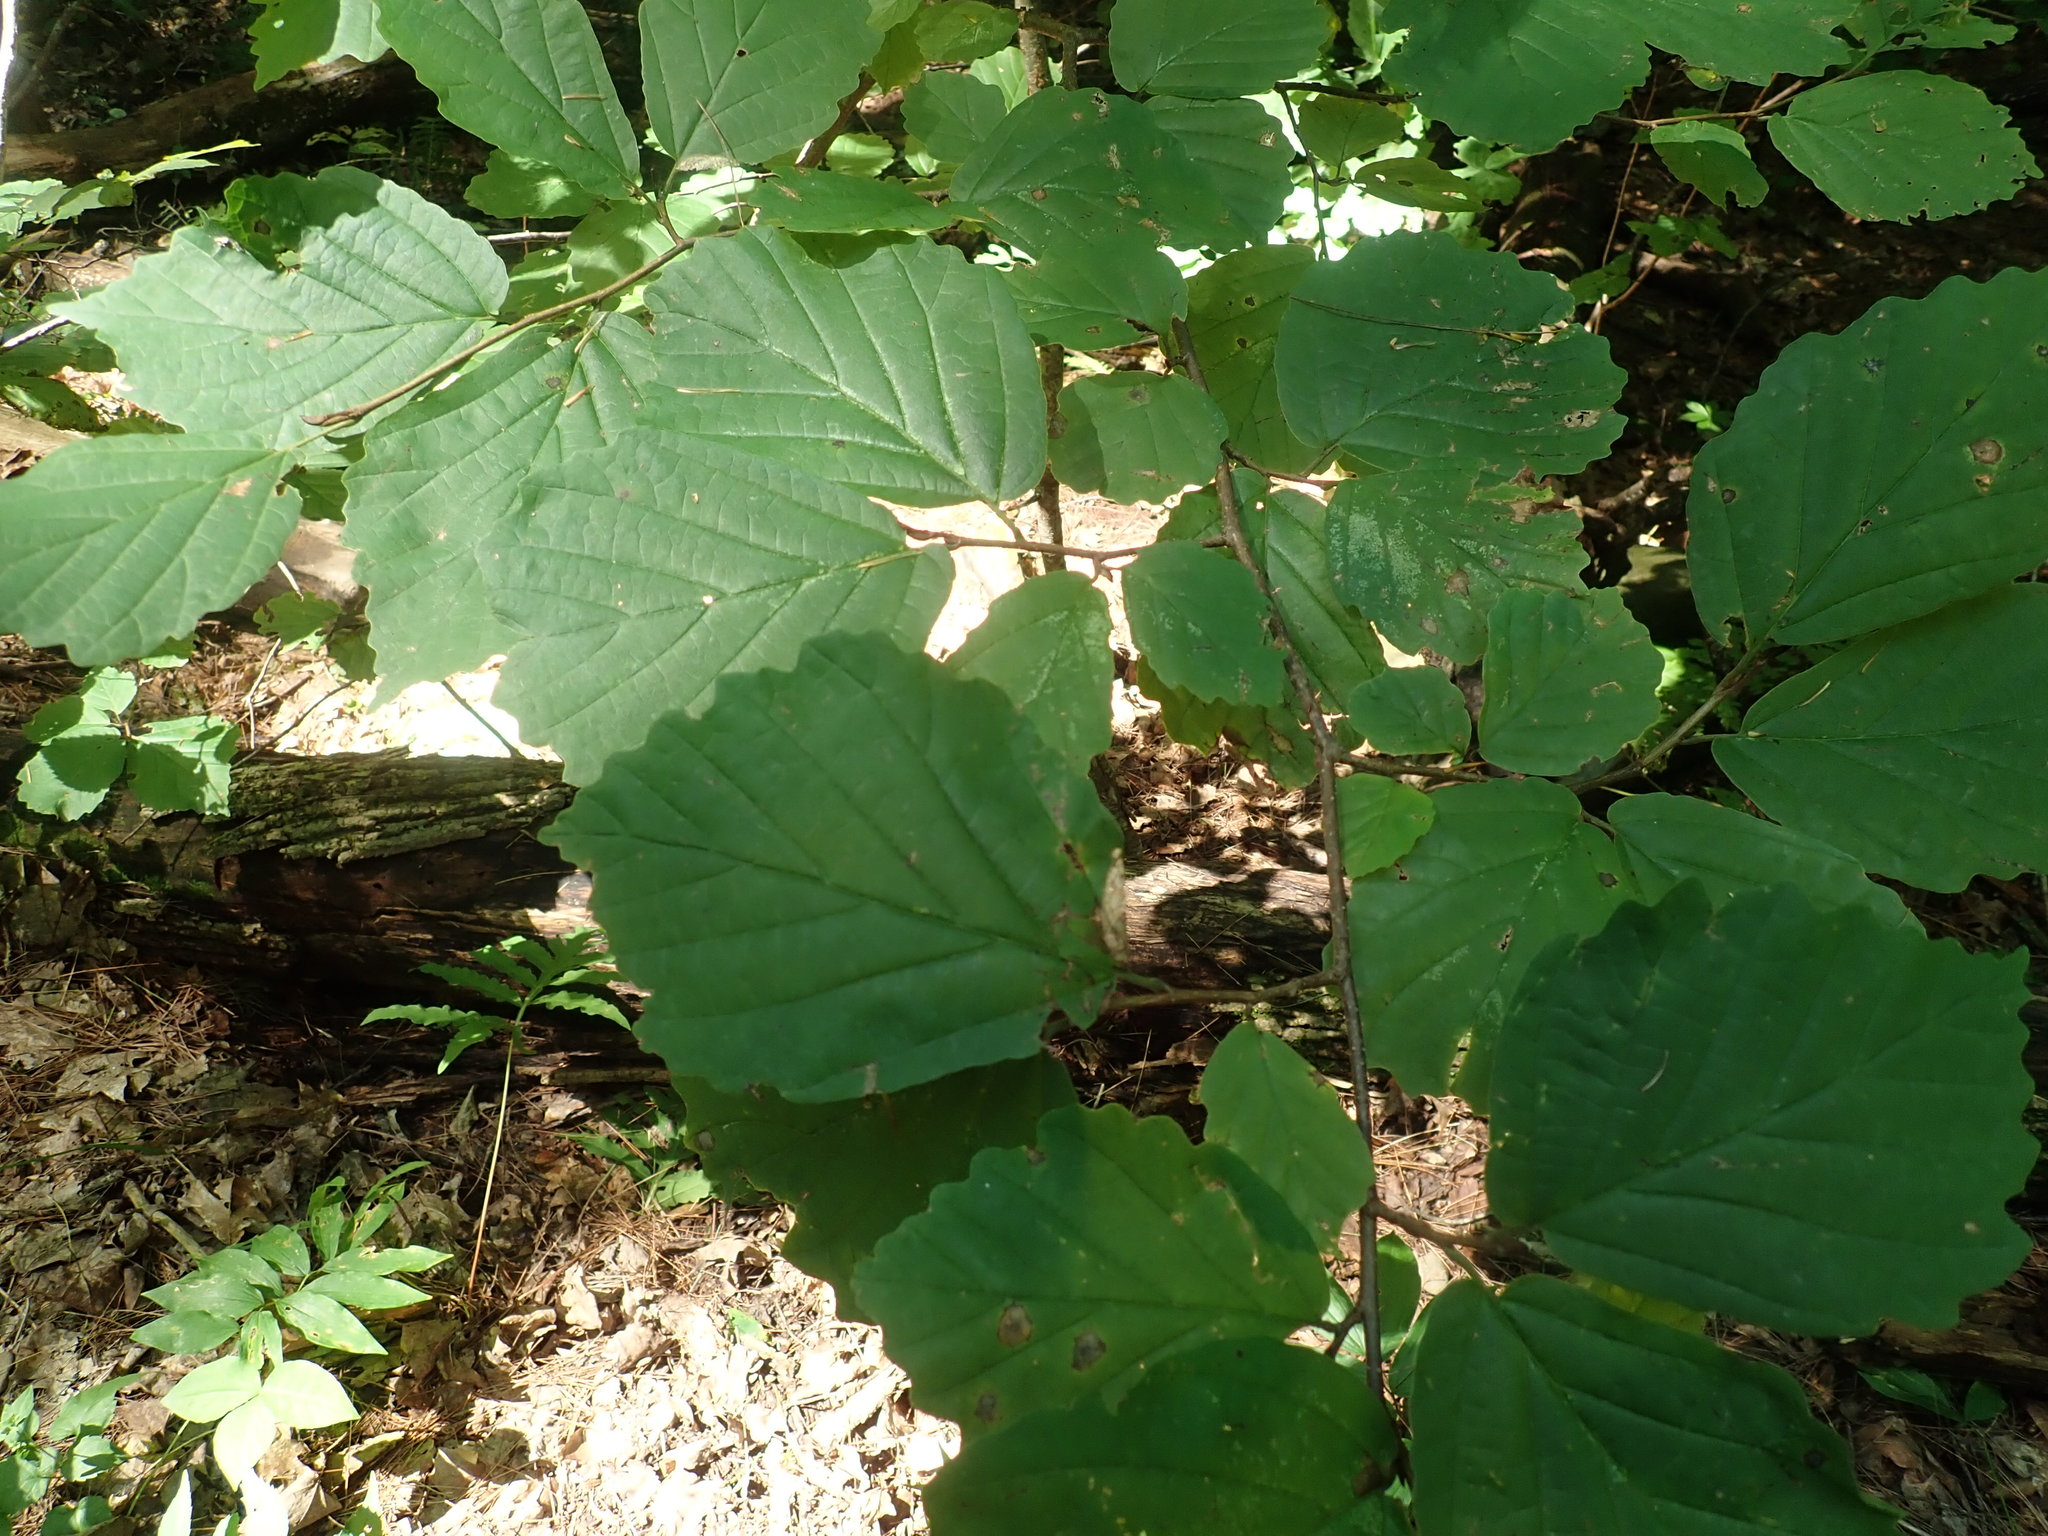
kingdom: Plantae
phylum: Tracheophyta
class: Magnoliopsida
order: Saxifragales
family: Hamamelidaceae
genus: Hamamelis
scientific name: Hamamelis virginiana
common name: Witch-hazel
